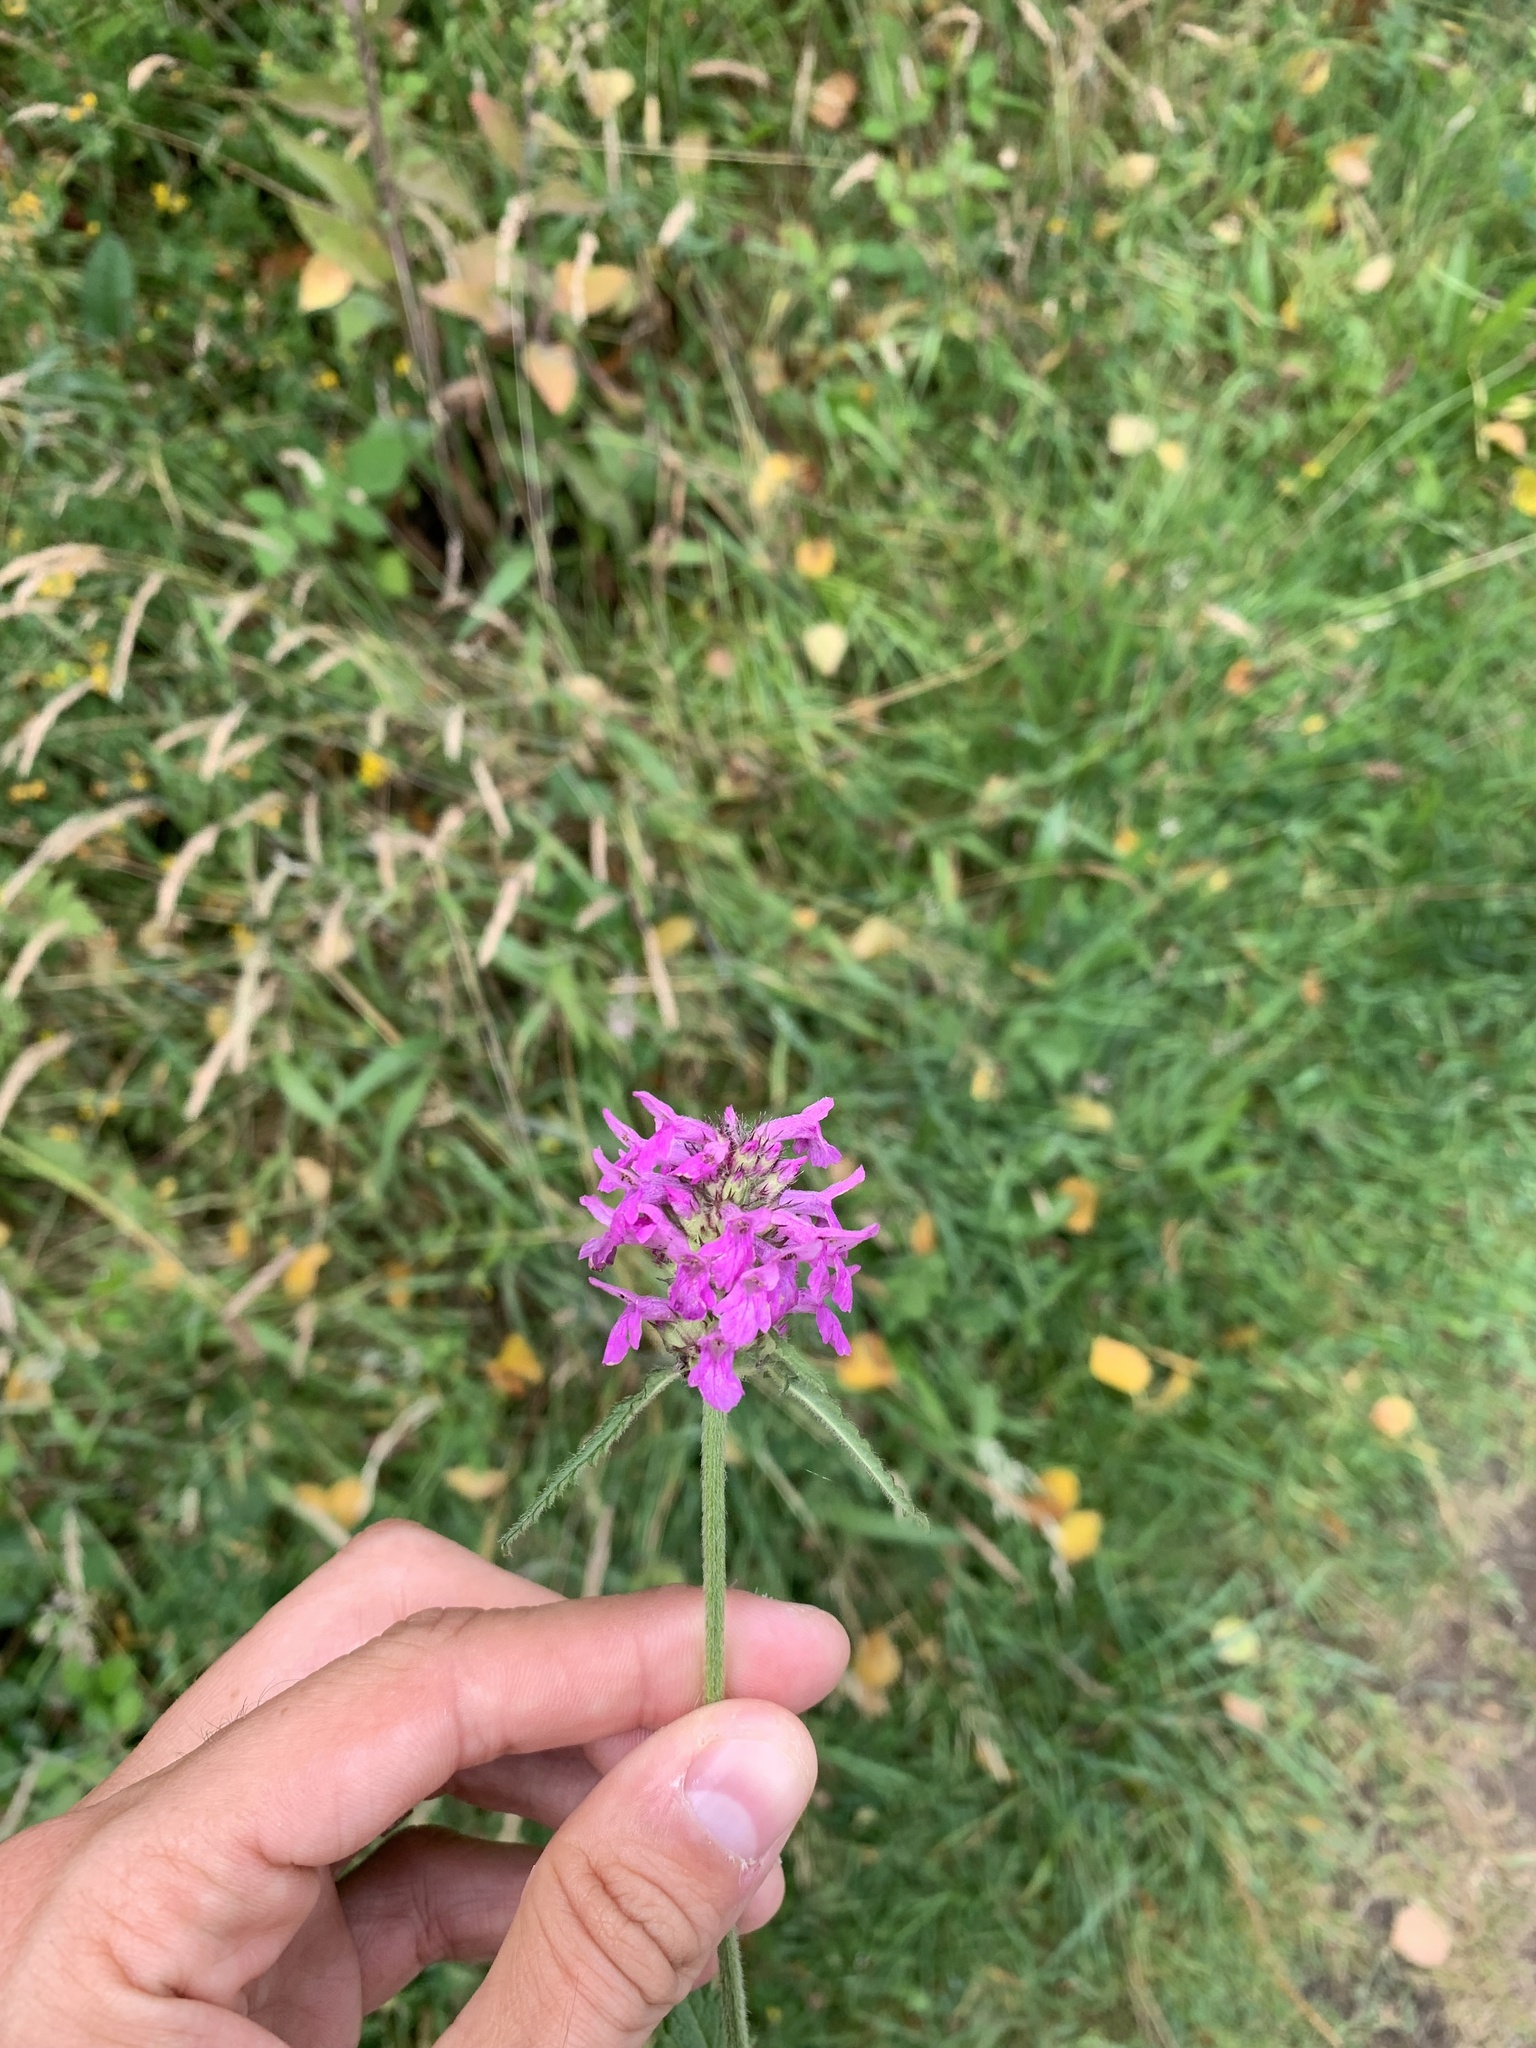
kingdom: Plantae
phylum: Tracheophyta
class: Magnoliopsida
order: Lamiales
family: Lamiaceae
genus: Betonica
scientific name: Betonica officinalis
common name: Bishop's-wort
